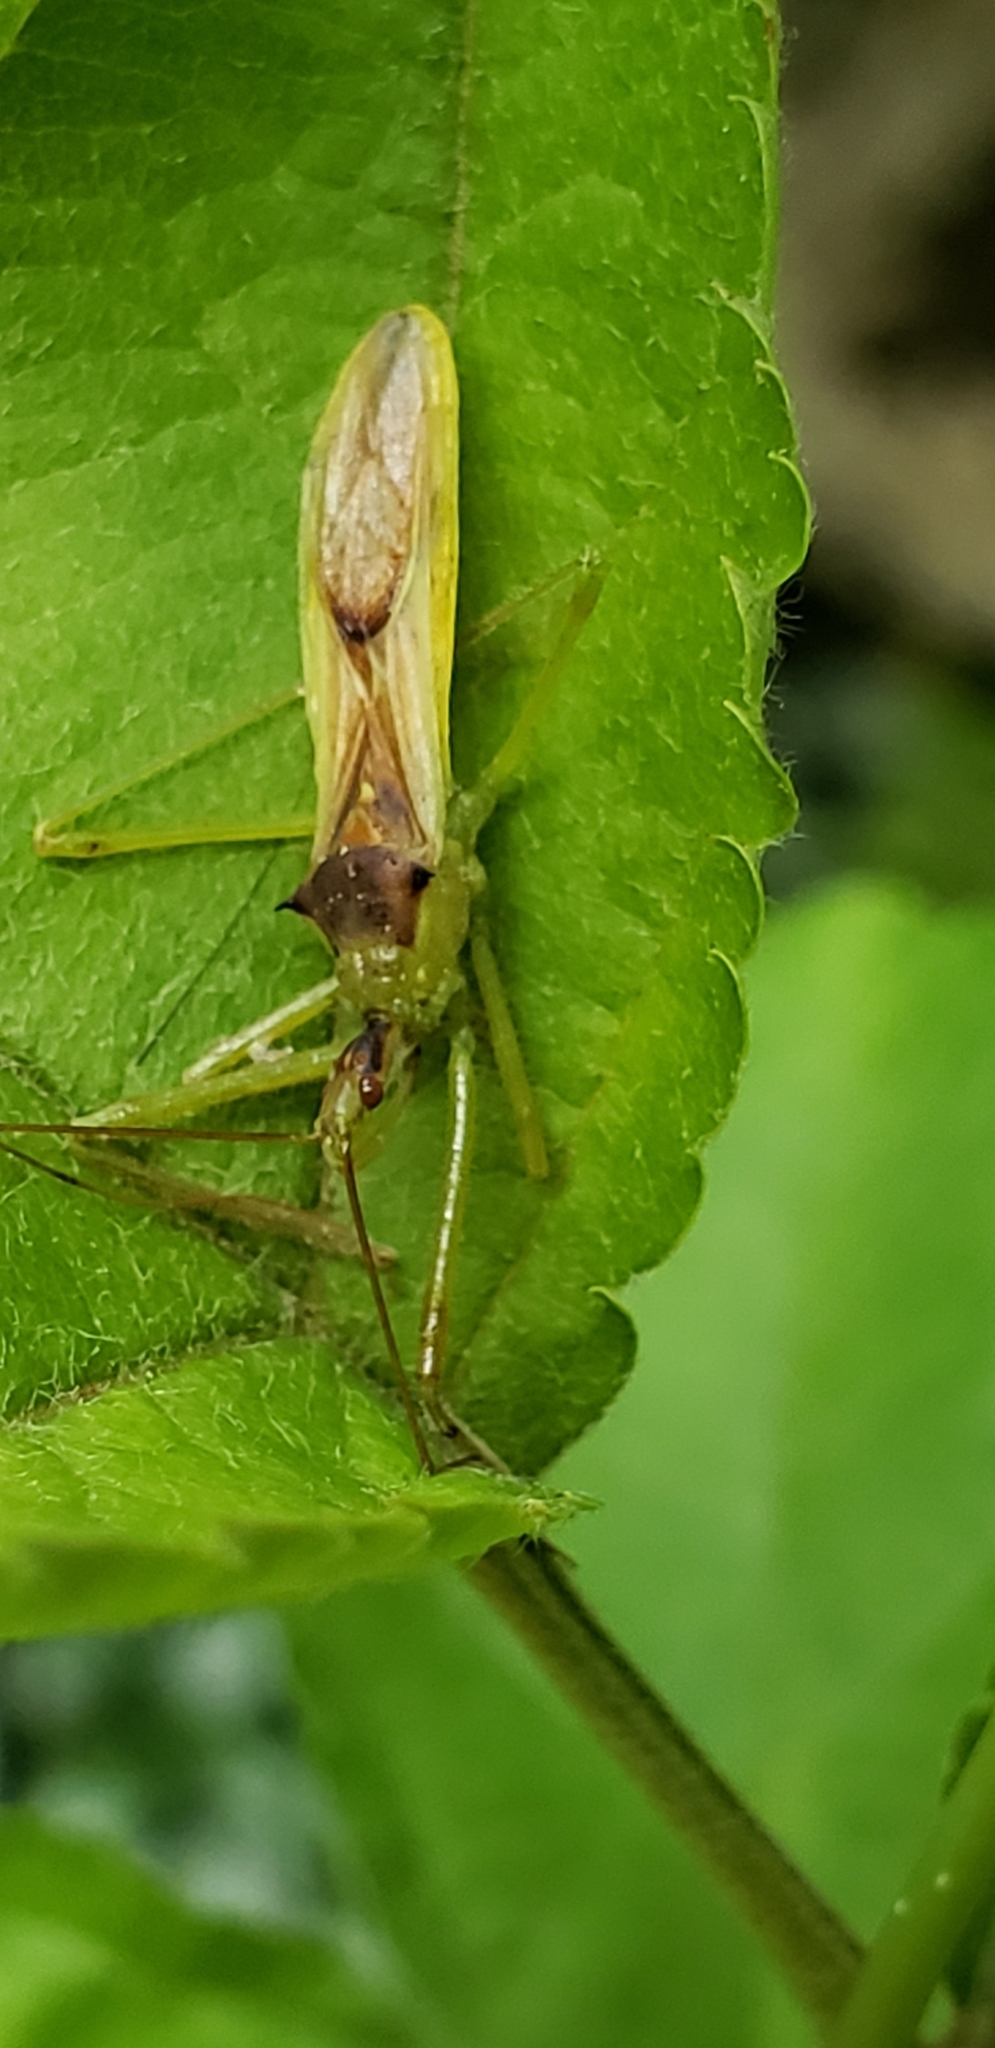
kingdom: Animalia
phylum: Arthropoda
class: Insecta
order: Hemiptera
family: Reduviidae
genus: Zelus
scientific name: Zelus luridus
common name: Pale green assassin bug
